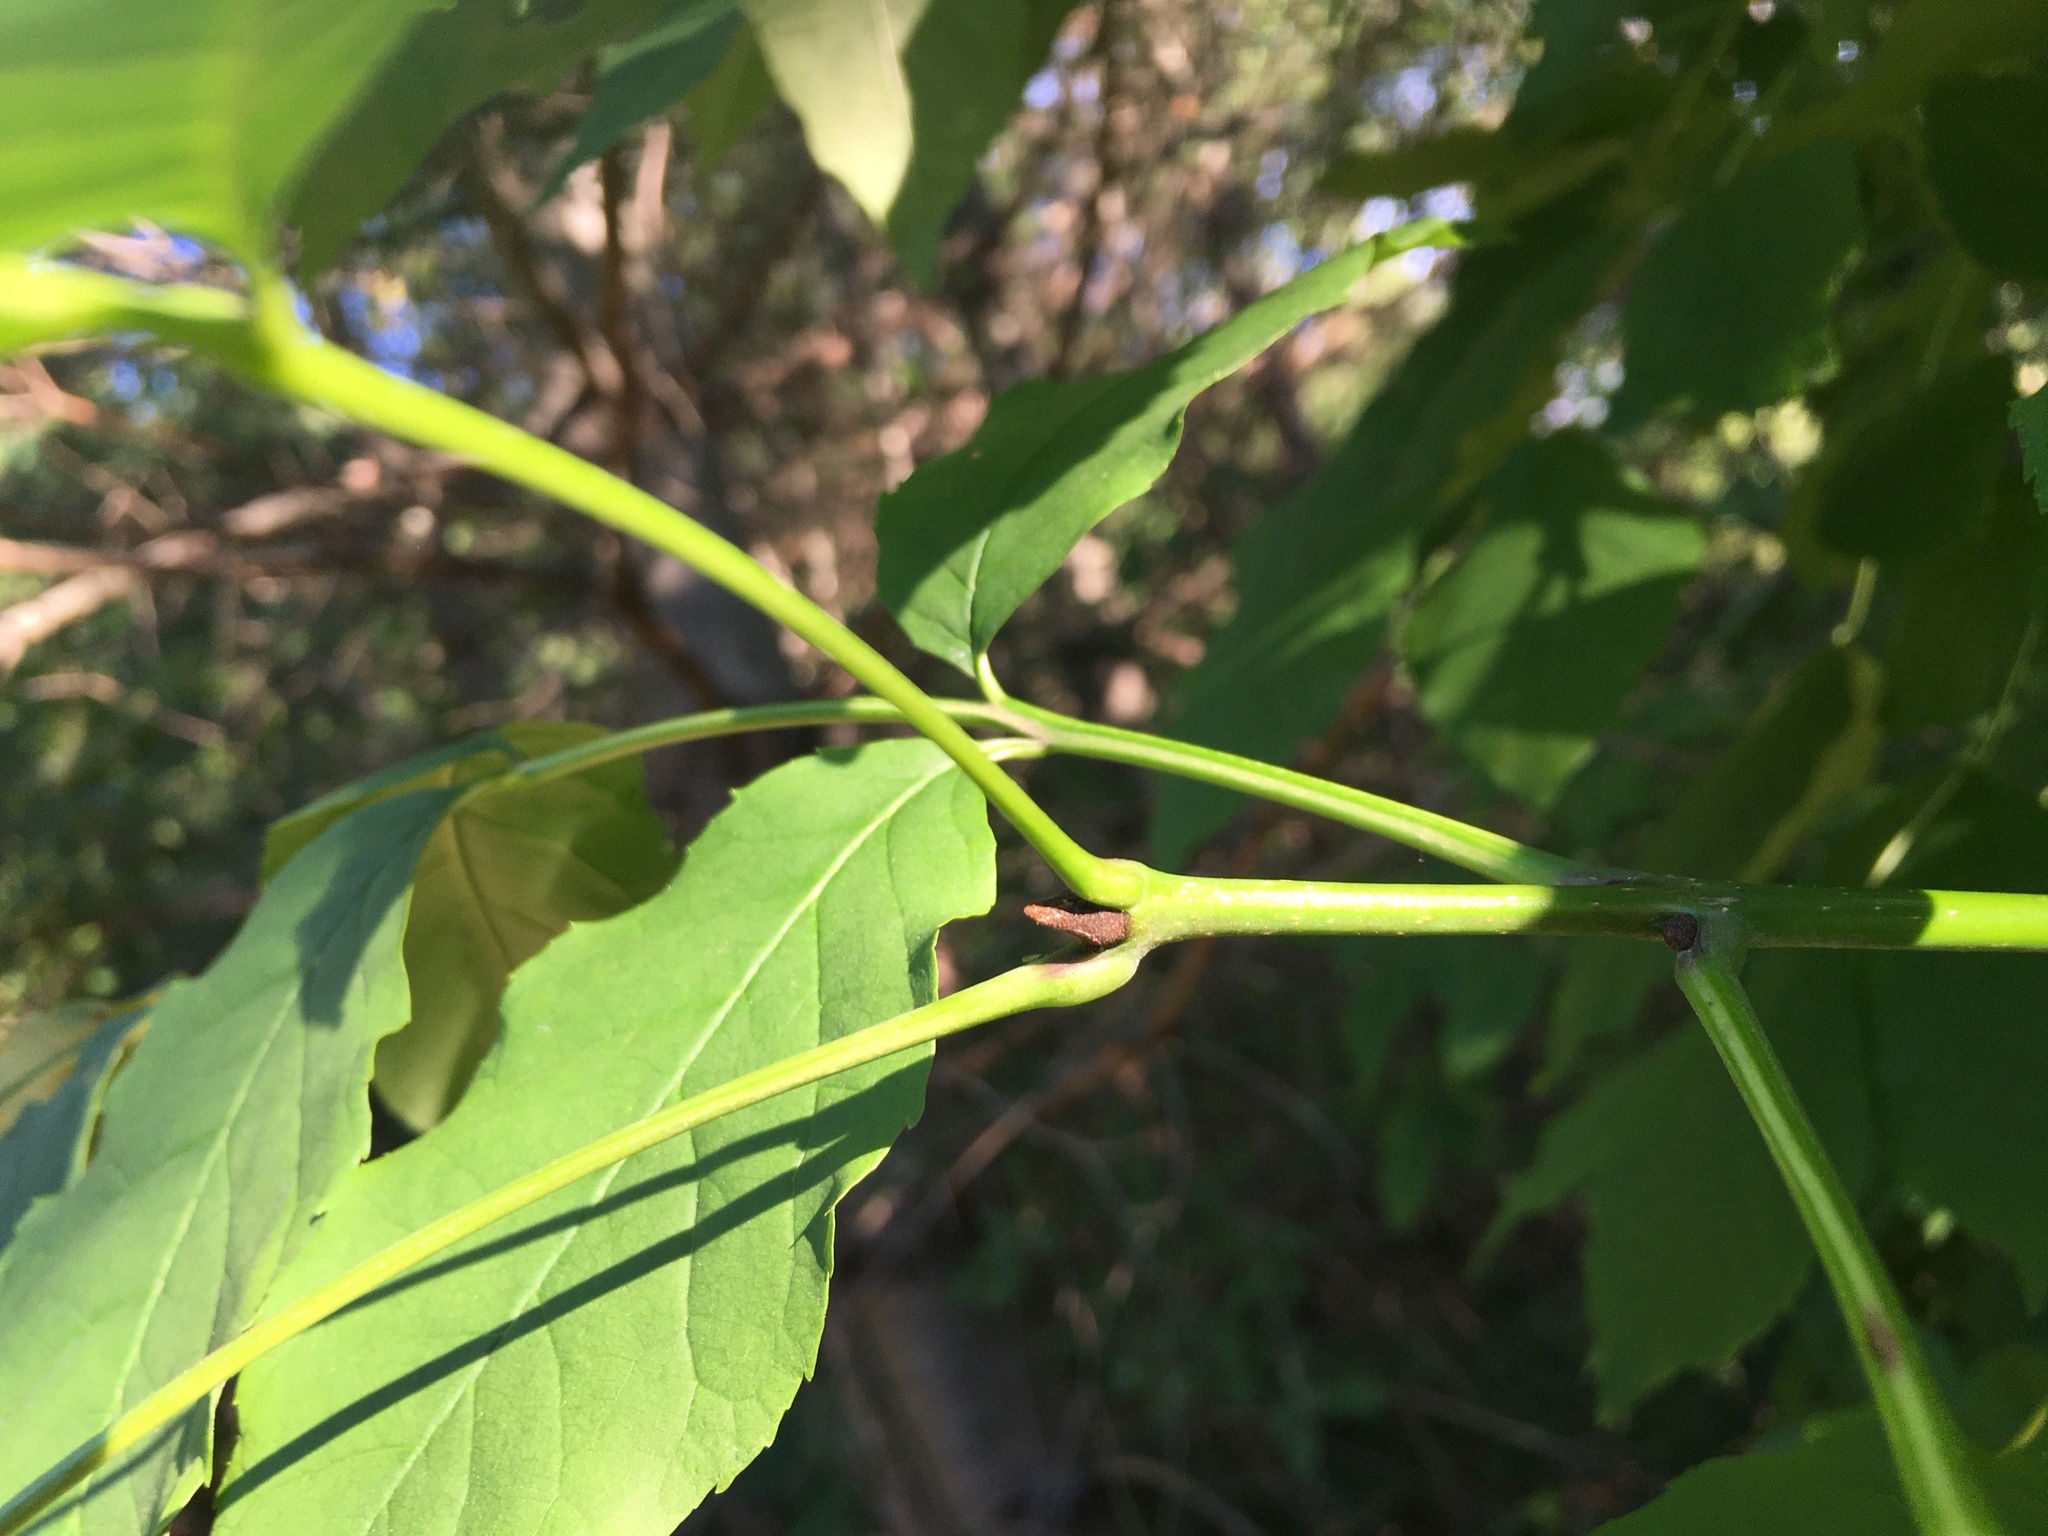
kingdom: Plantae
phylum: Tracheophyta
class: Magnoliopsida
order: Lamiales
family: Oleaceae
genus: Fraxinus
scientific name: Fraxinus pennsylvanica
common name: Green ash
